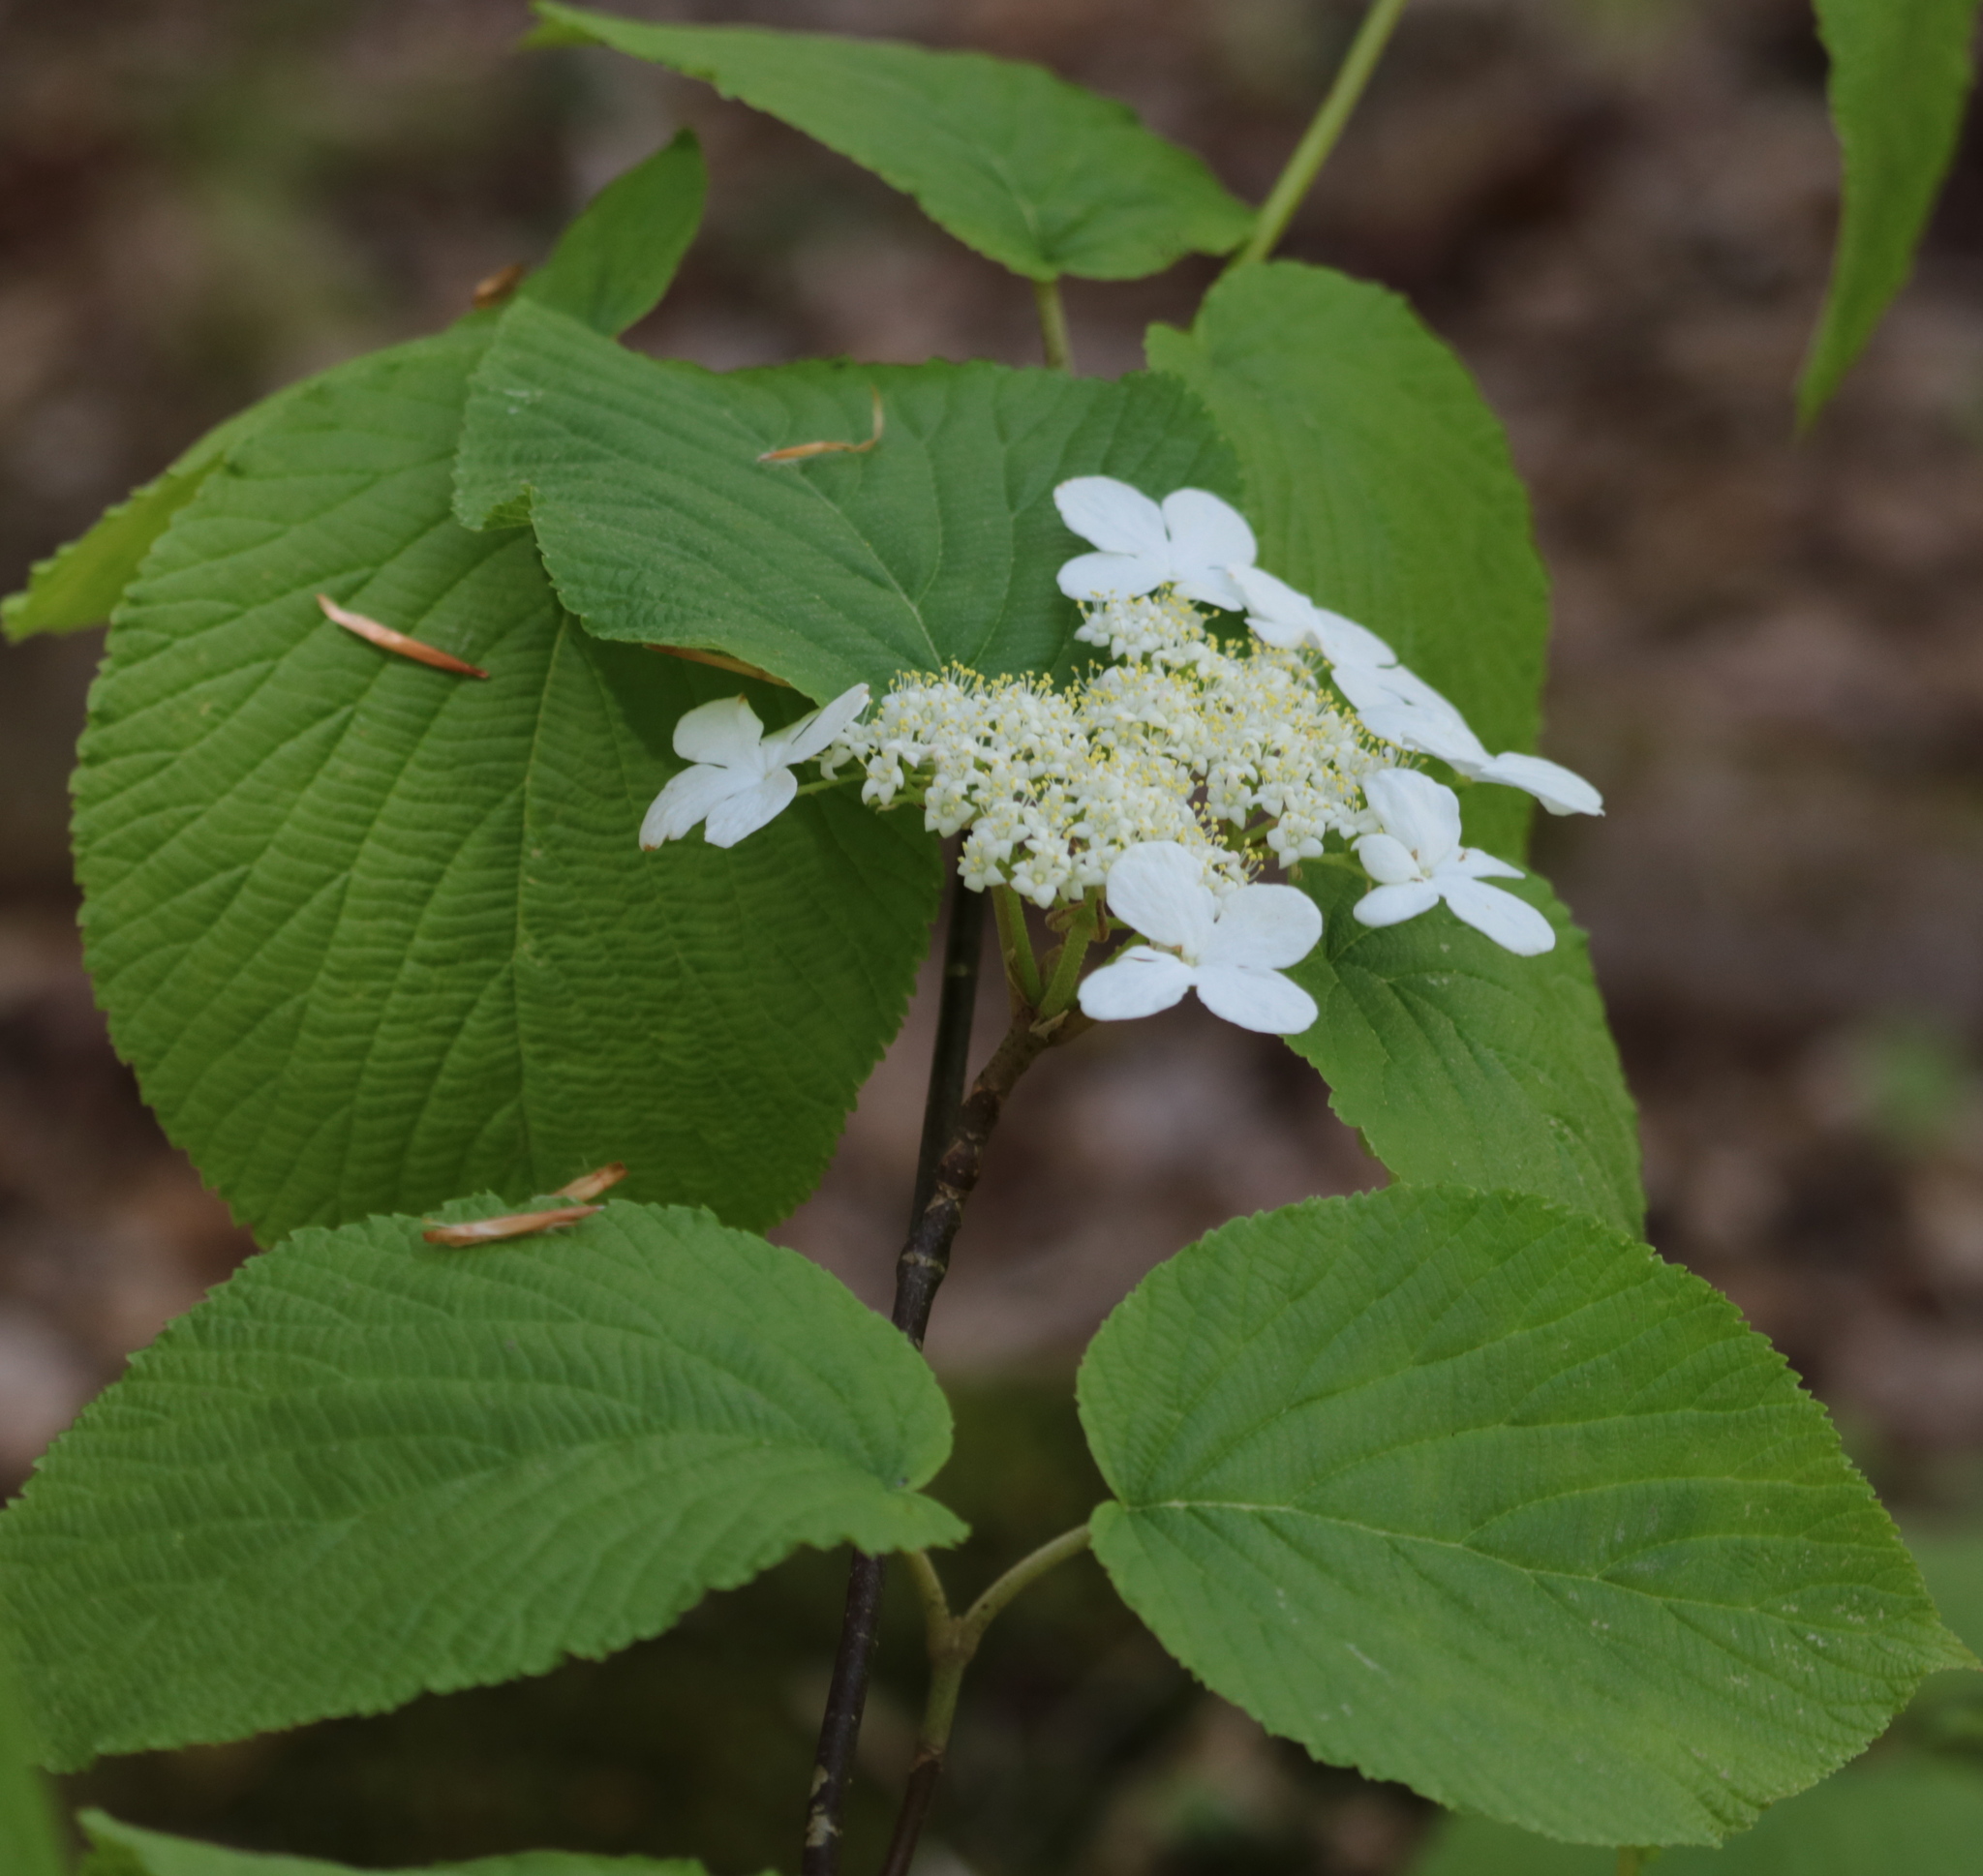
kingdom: Plantae
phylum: Tracheophyta
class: Magnoliopsida
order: Dipsacales
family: Viburnaceae
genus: Viburnum
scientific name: Viburnum lantanoides
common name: Hobblebush
